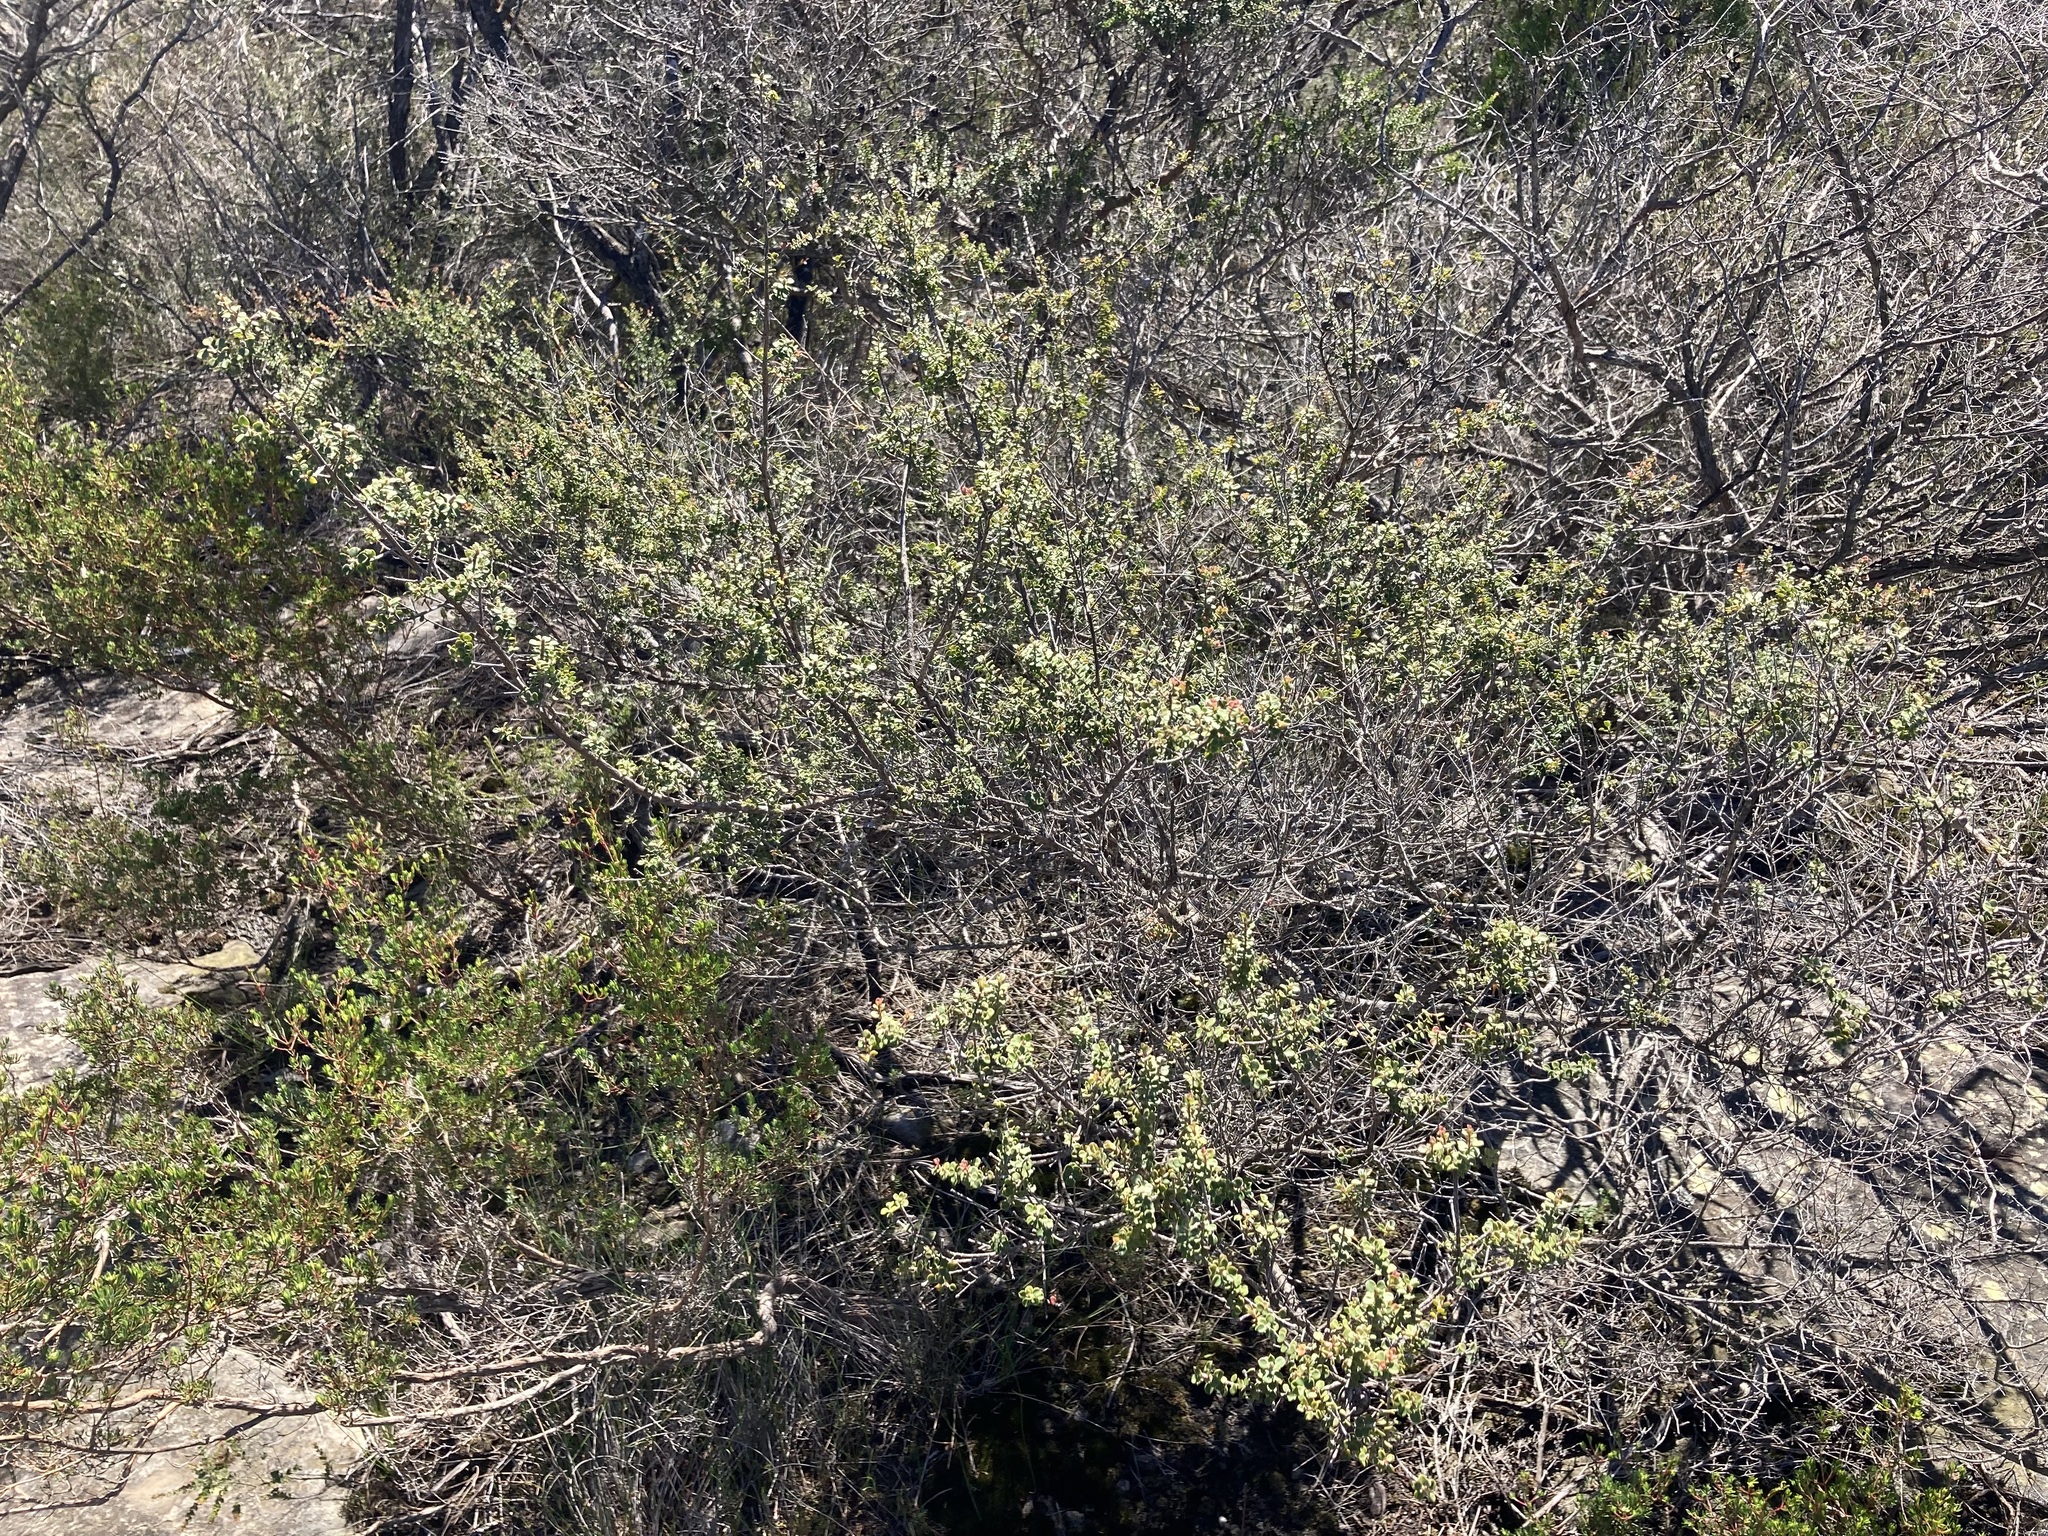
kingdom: Plantae
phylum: Tracheophyta
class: Magnoliopsida
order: Myrtales
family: Myrtaceae
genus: Leptospermum
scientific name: Leptospermum rotundifolium
